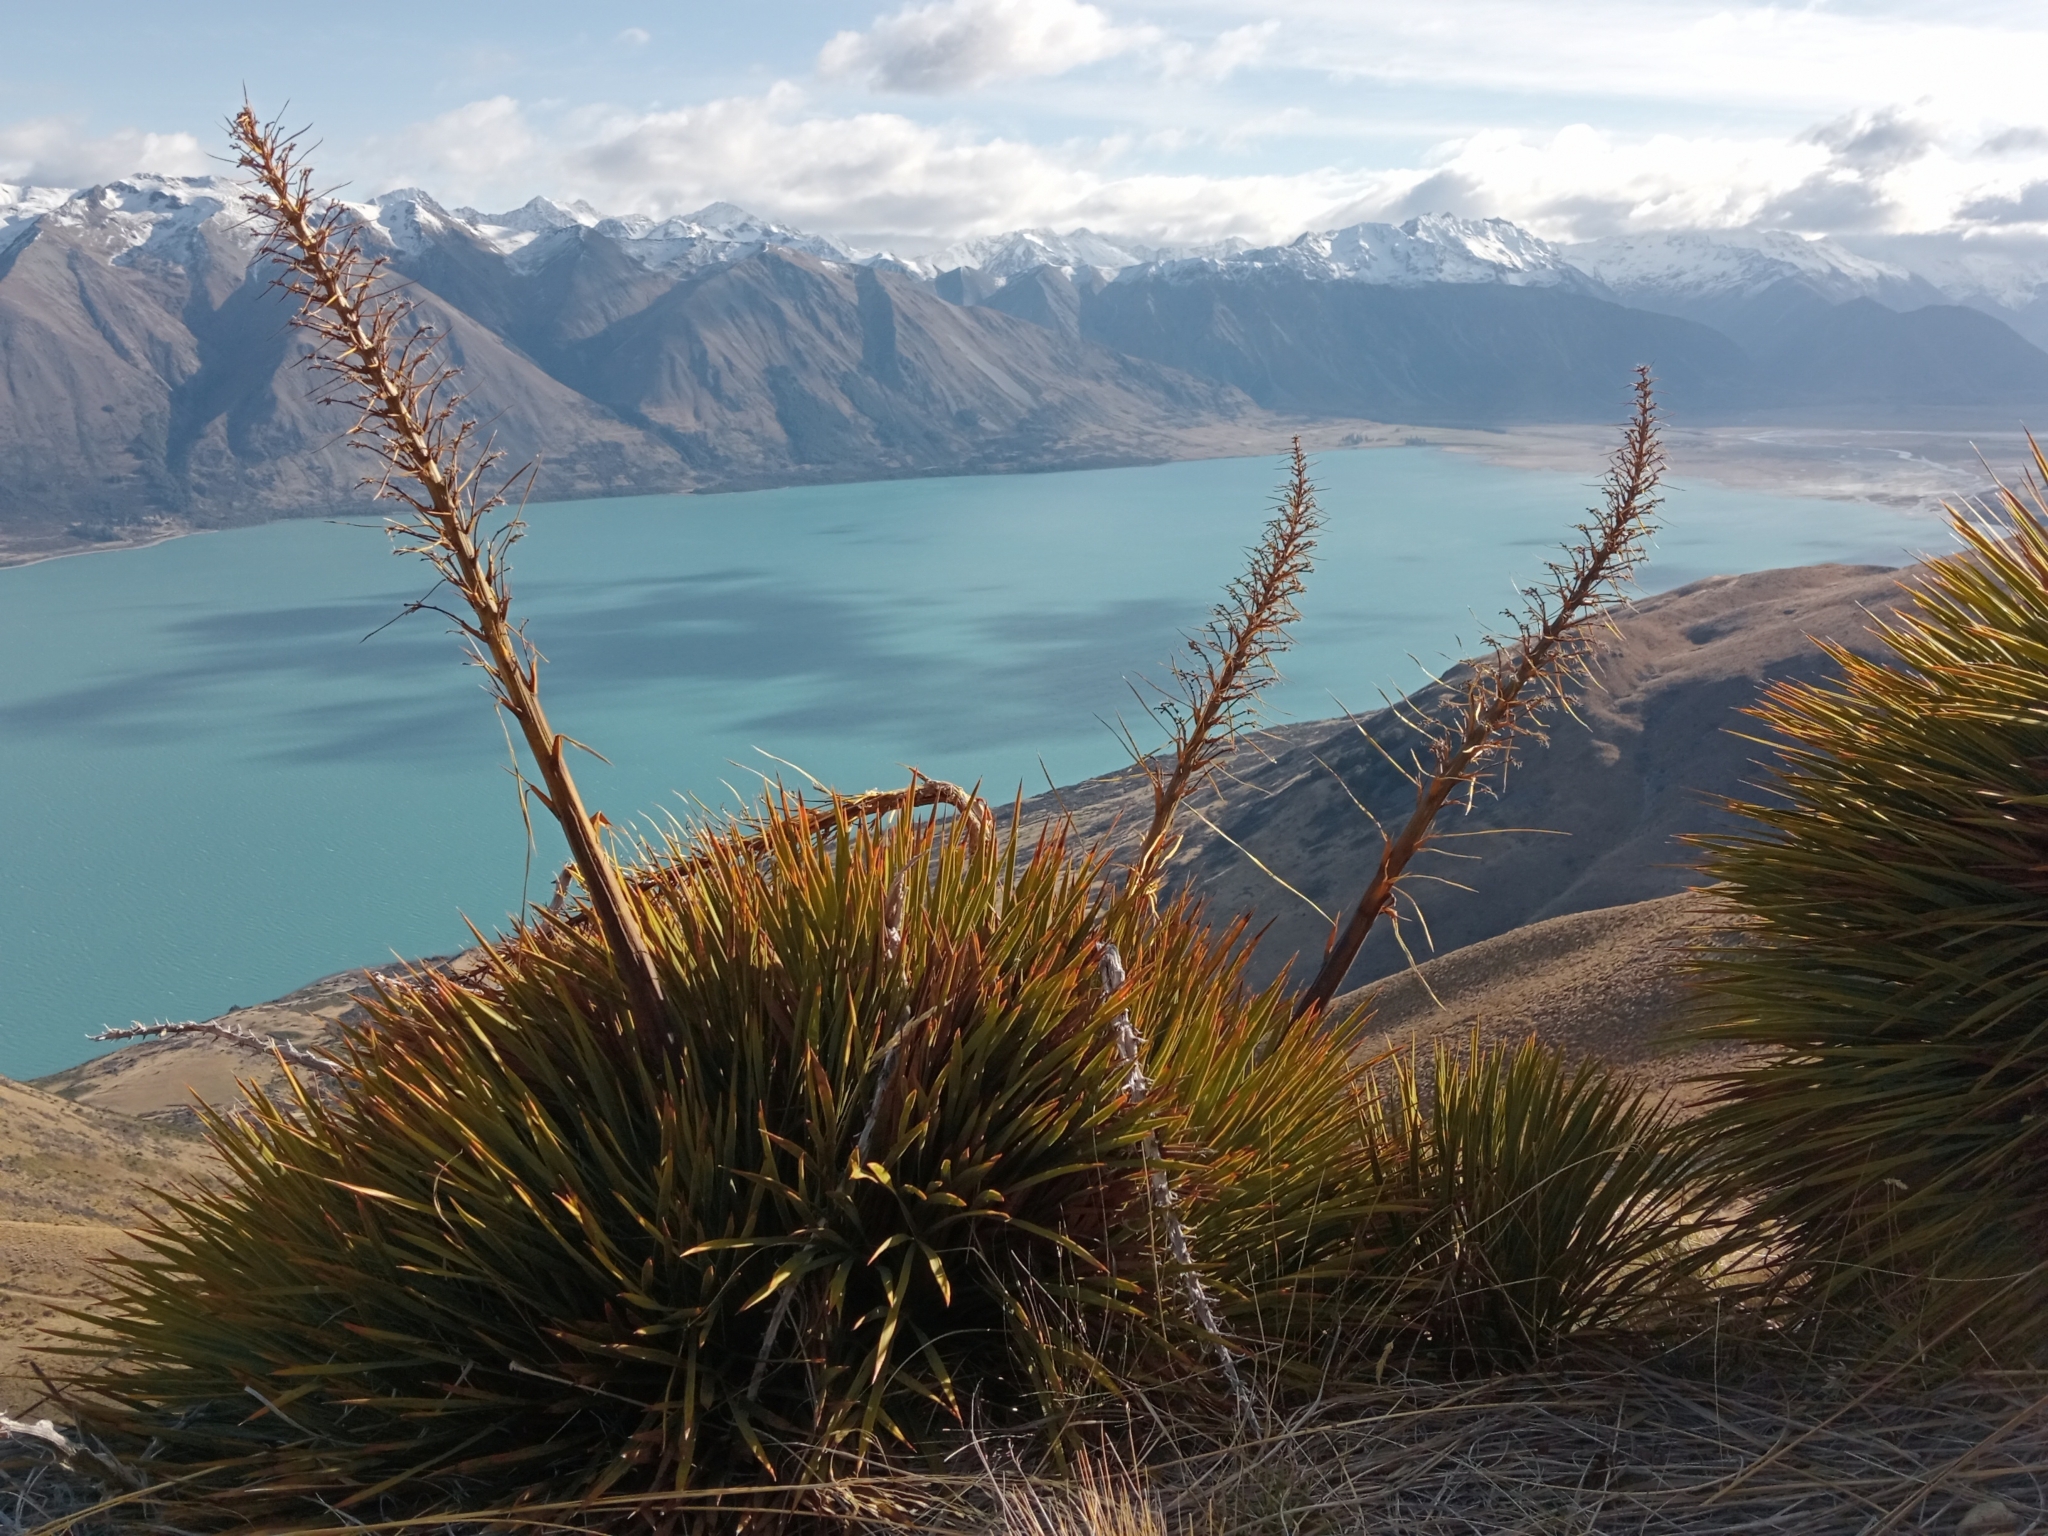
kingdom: Plantae
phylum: Tracheophyta
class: Magnoliopsida
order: Apiales
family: Apiaceae
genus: Aciphylla
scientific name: Aciphylla aurea
